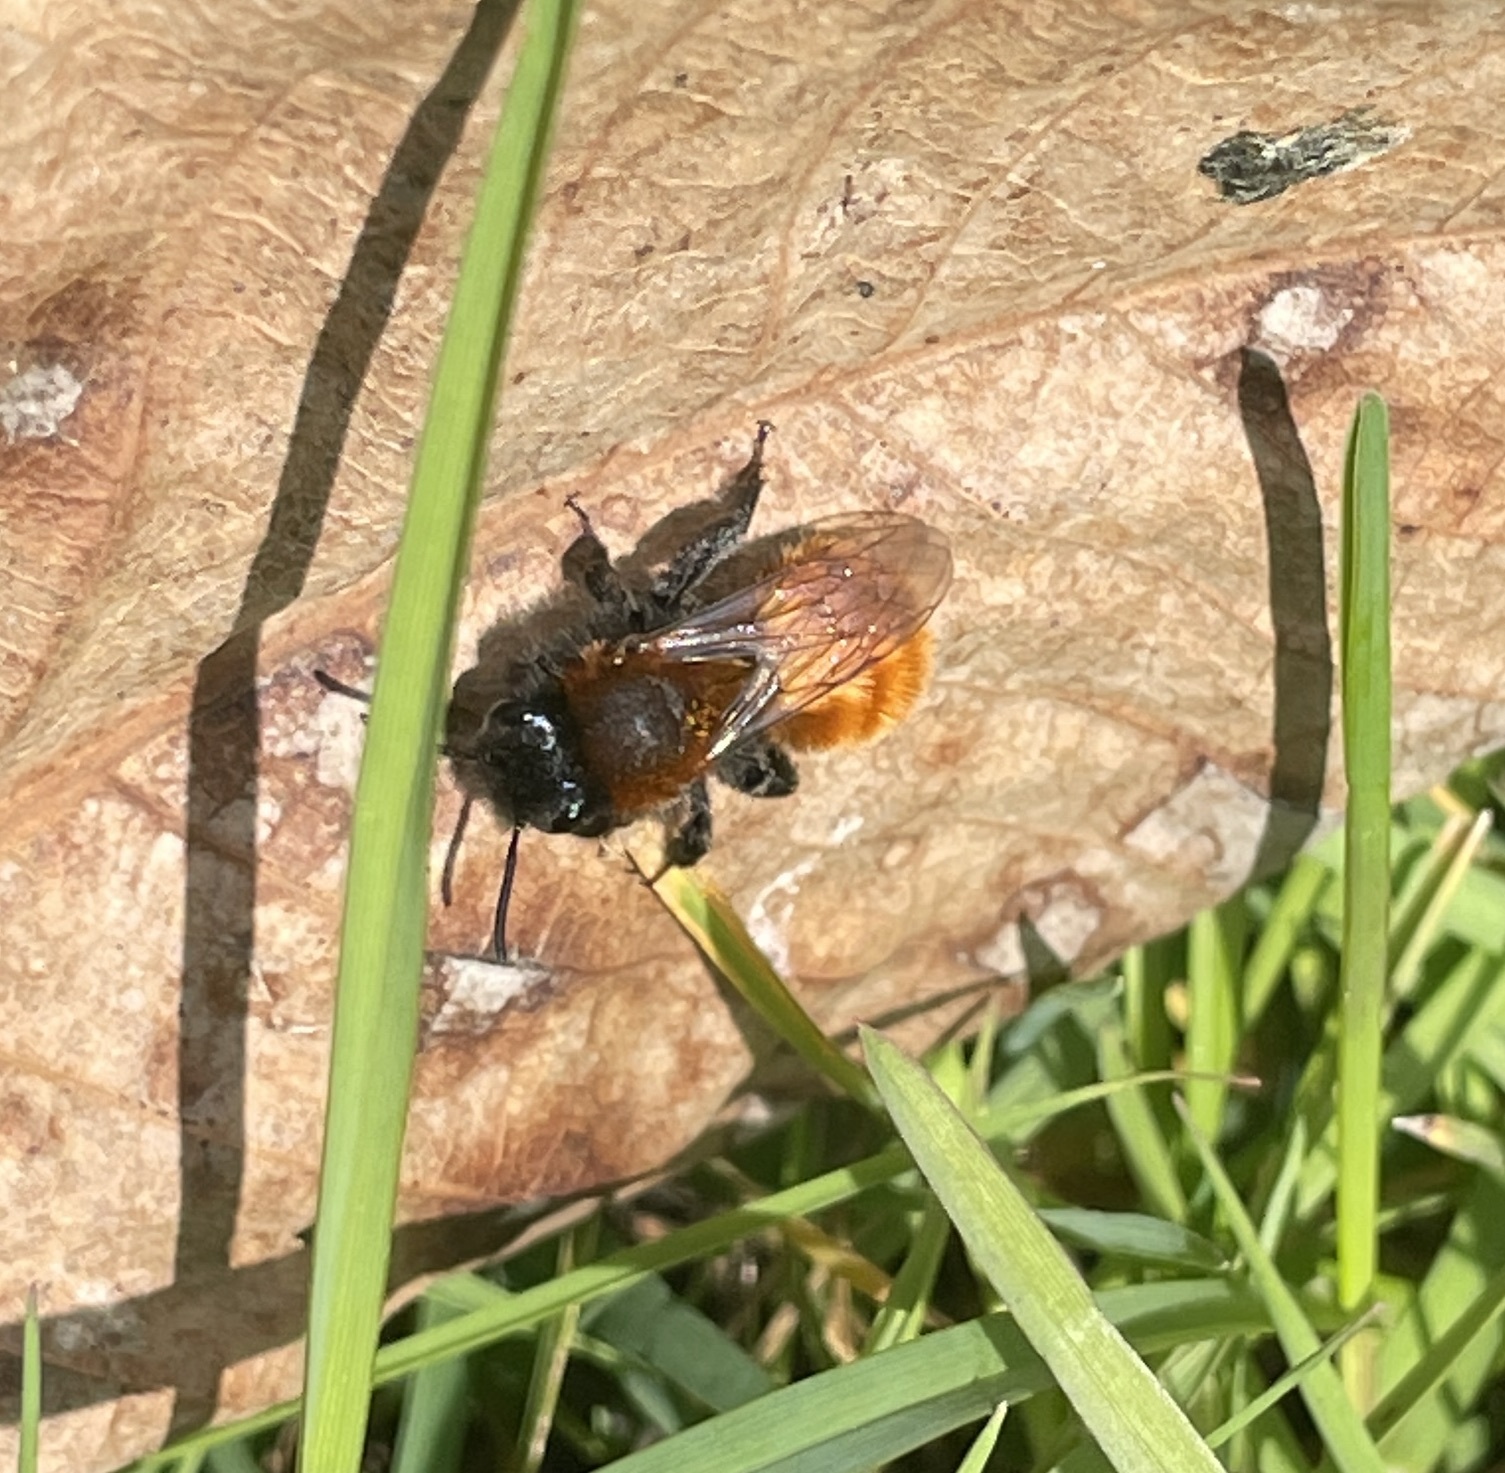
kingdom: Animalia
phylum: Arthropoda
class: Insecta
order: Hymenoptera
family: Andrenidae
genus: Andrena
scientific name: Andrena fulva
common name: Tawny mining bee
